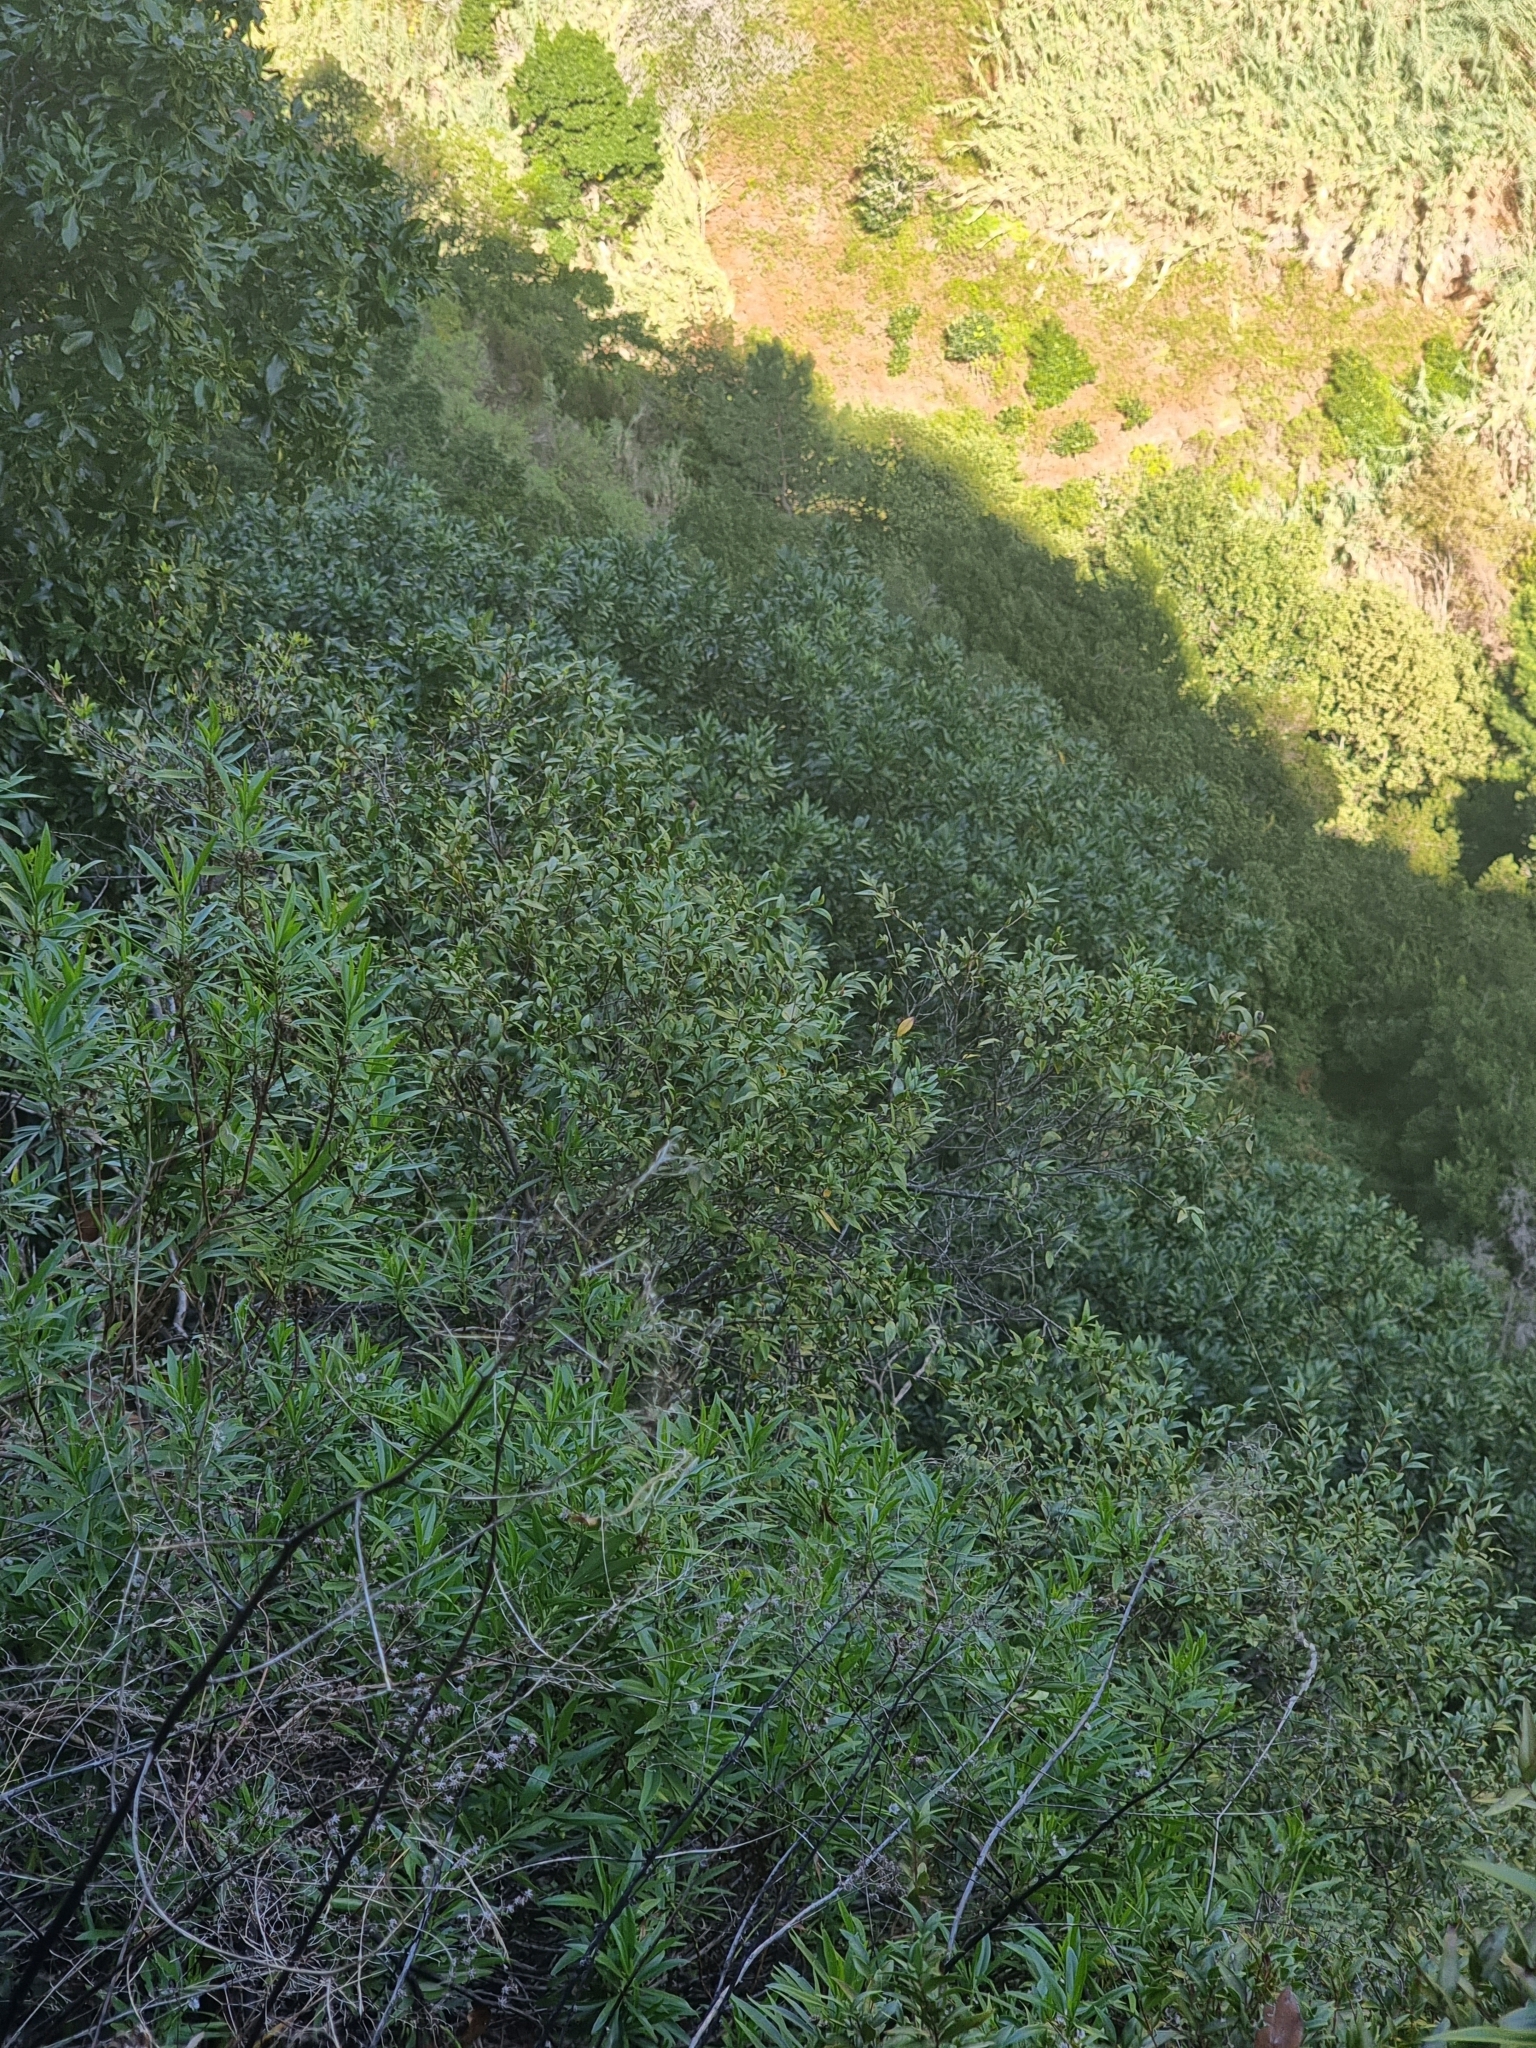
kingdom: Plantae
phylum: Tracheophyta
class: Magnoliopsida
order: Myrtales
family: Myrtaceae
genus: Myrtus
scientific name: Myrtus communis
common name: Myrtle
